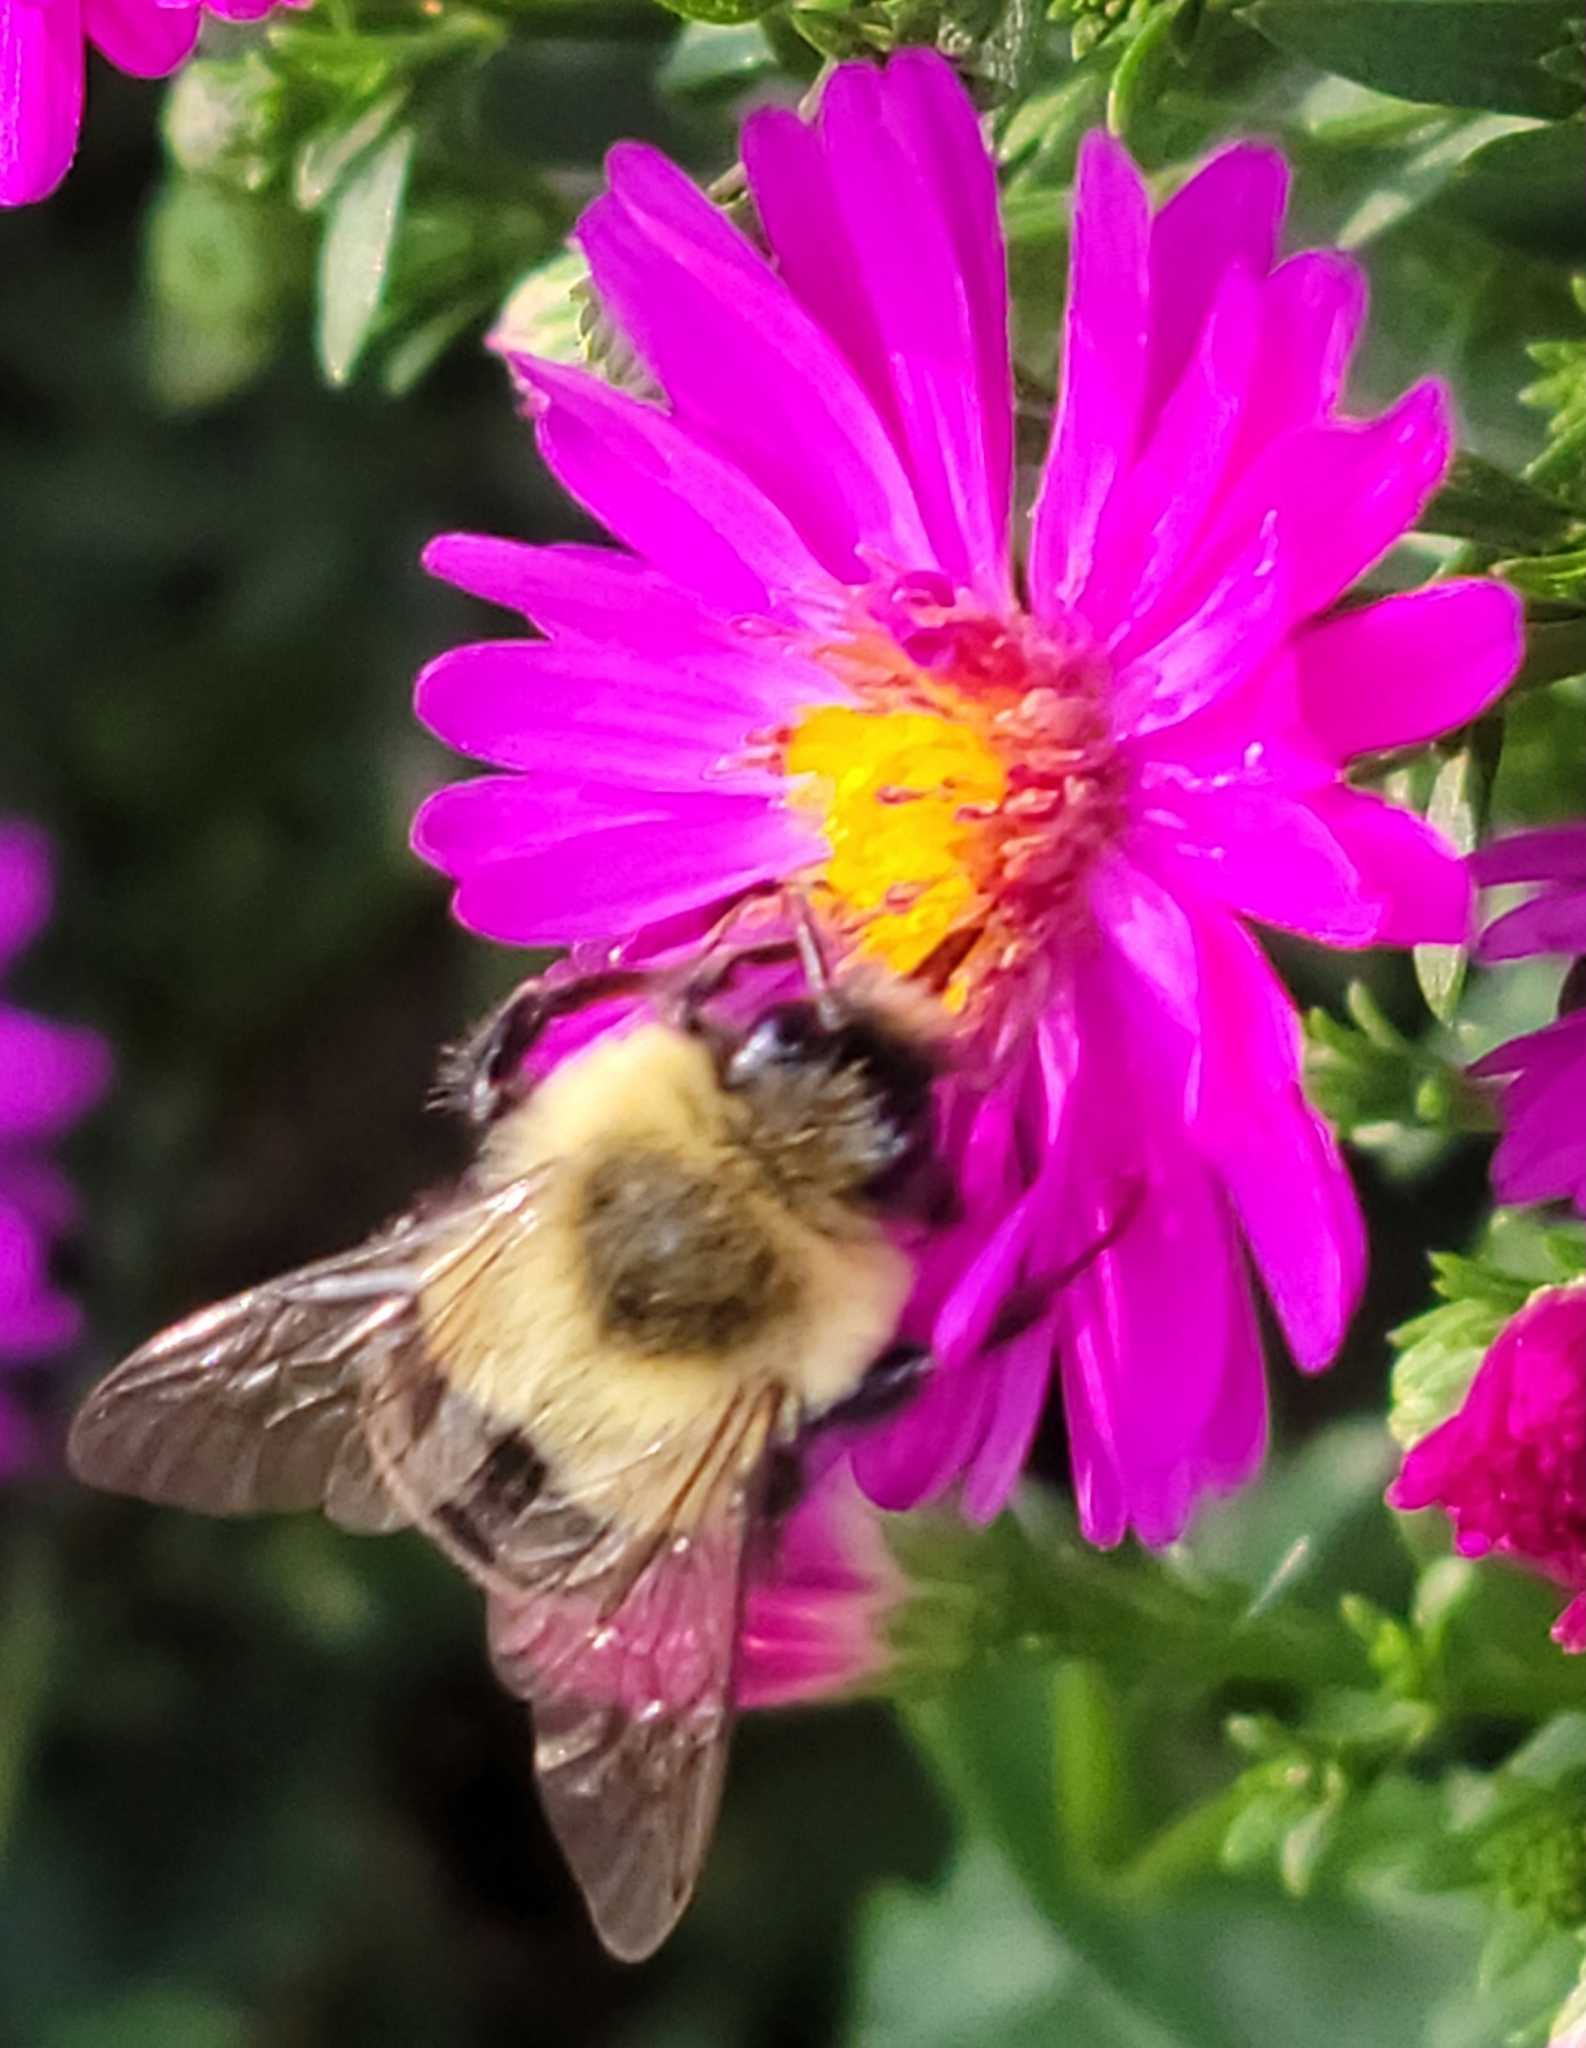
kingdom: Animalia
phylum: Arthropoda
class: Insecta
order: Hymenoptera
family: Apidae
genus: Bombus
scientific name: Bombus impatiens
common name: Common eastern bumble bee
